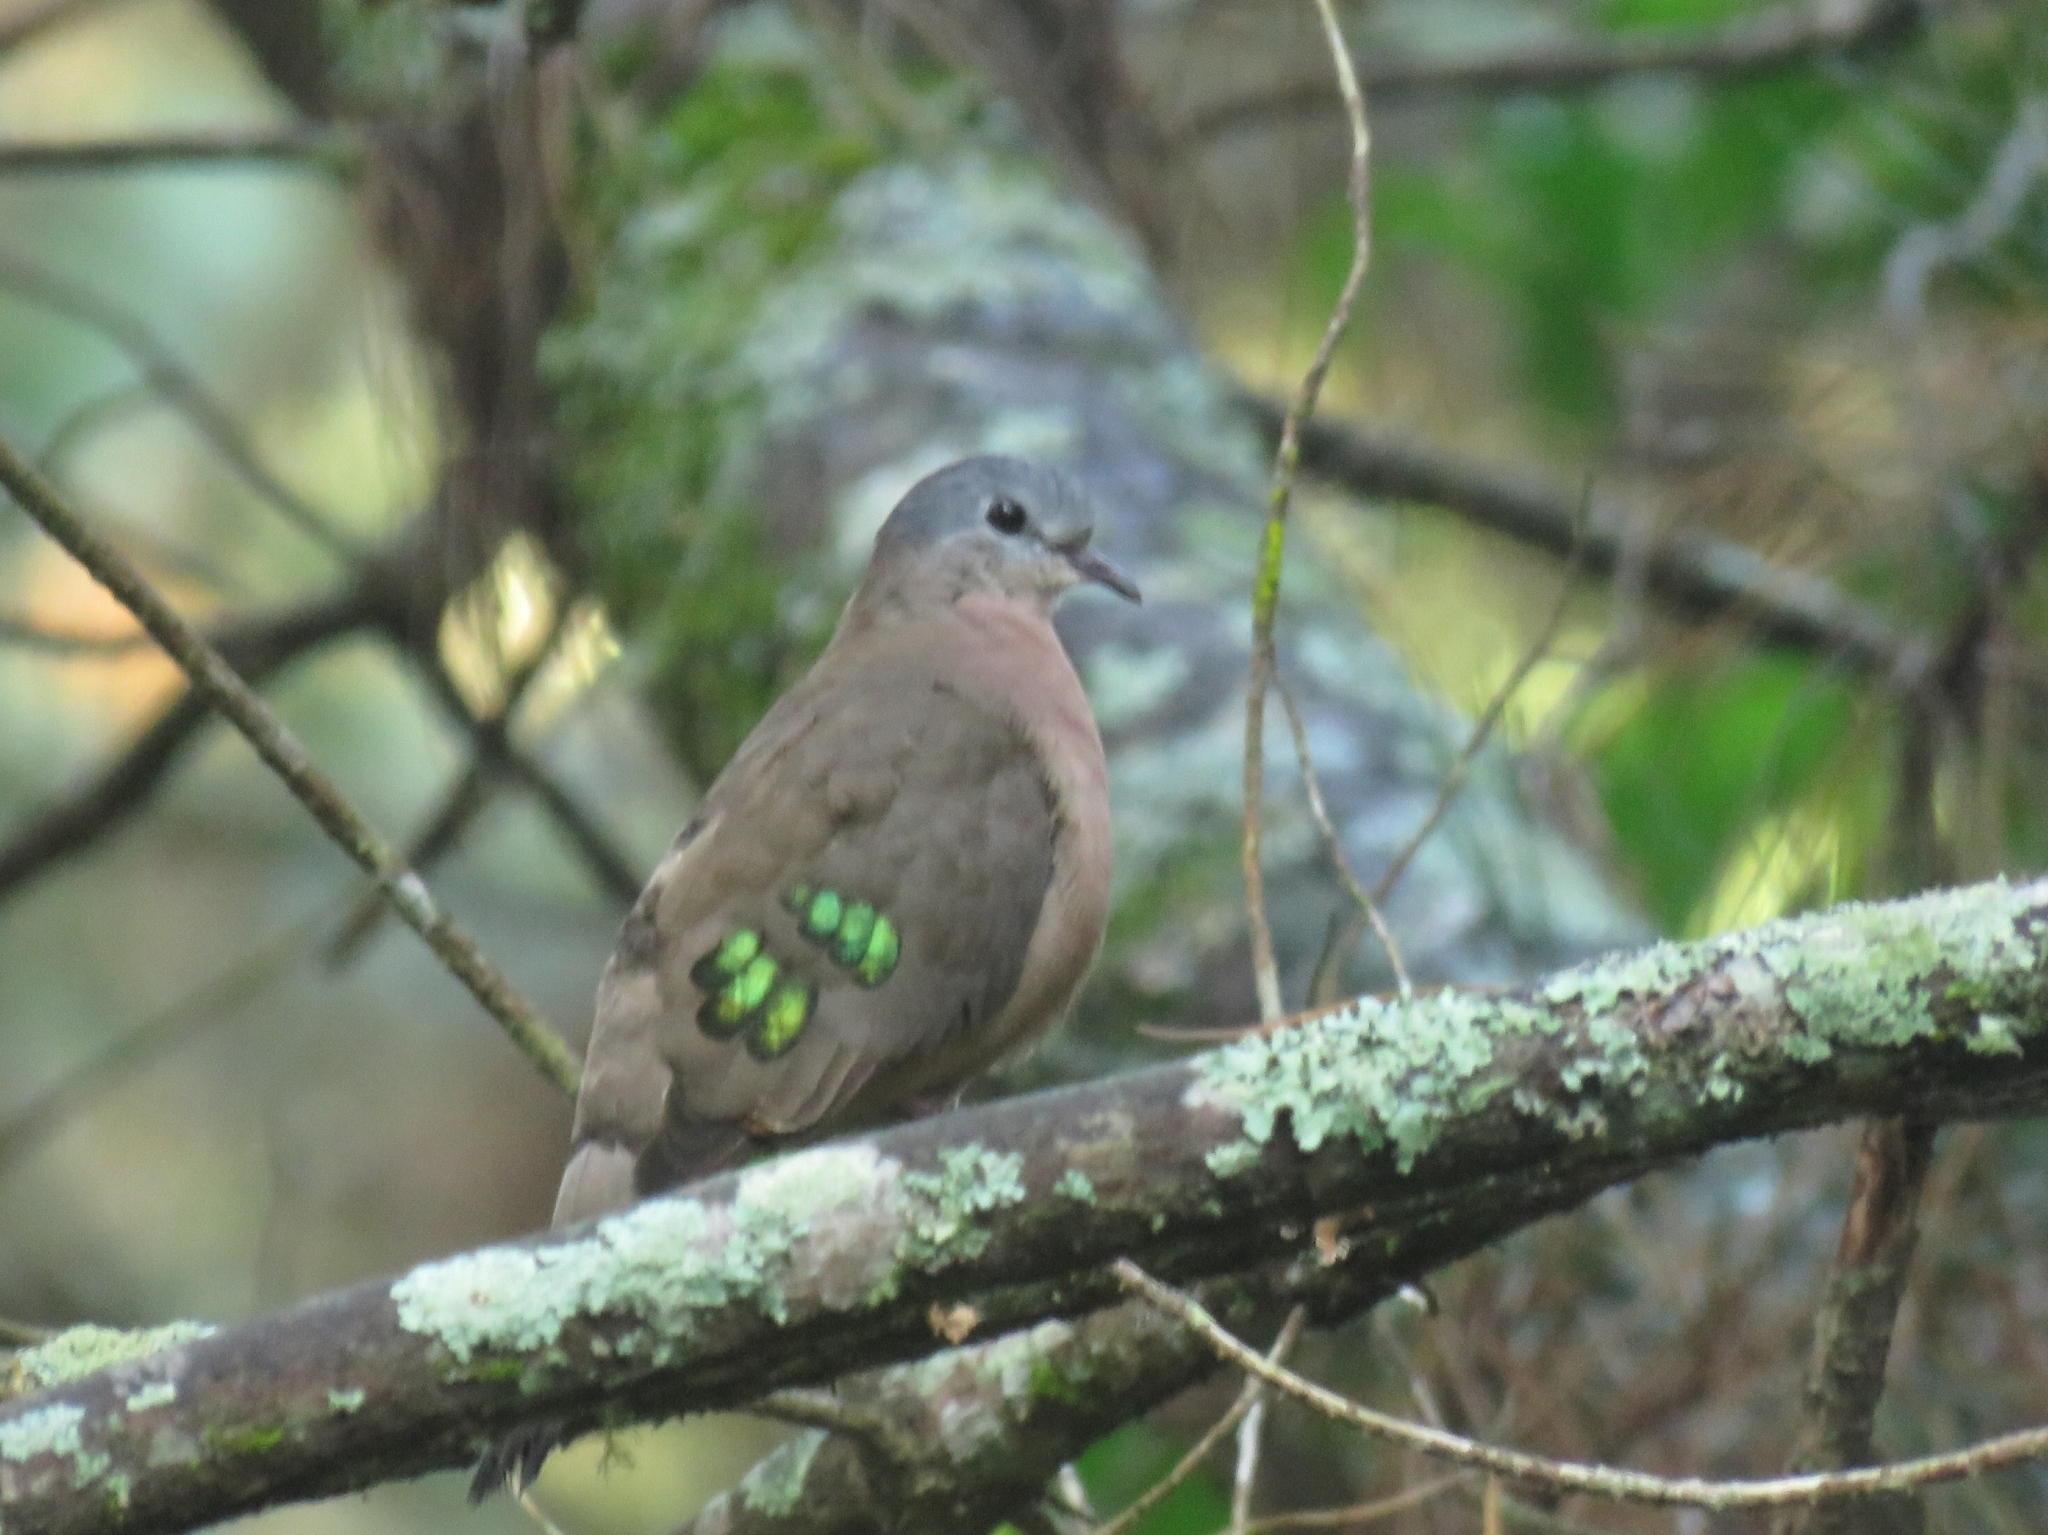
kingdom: Animalia
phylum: Chordata
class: Aves
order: Columbiformes
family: Columbidae
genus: Turtur
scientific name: Turtur chalcospilos
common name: Emerald-spotted wood dove
